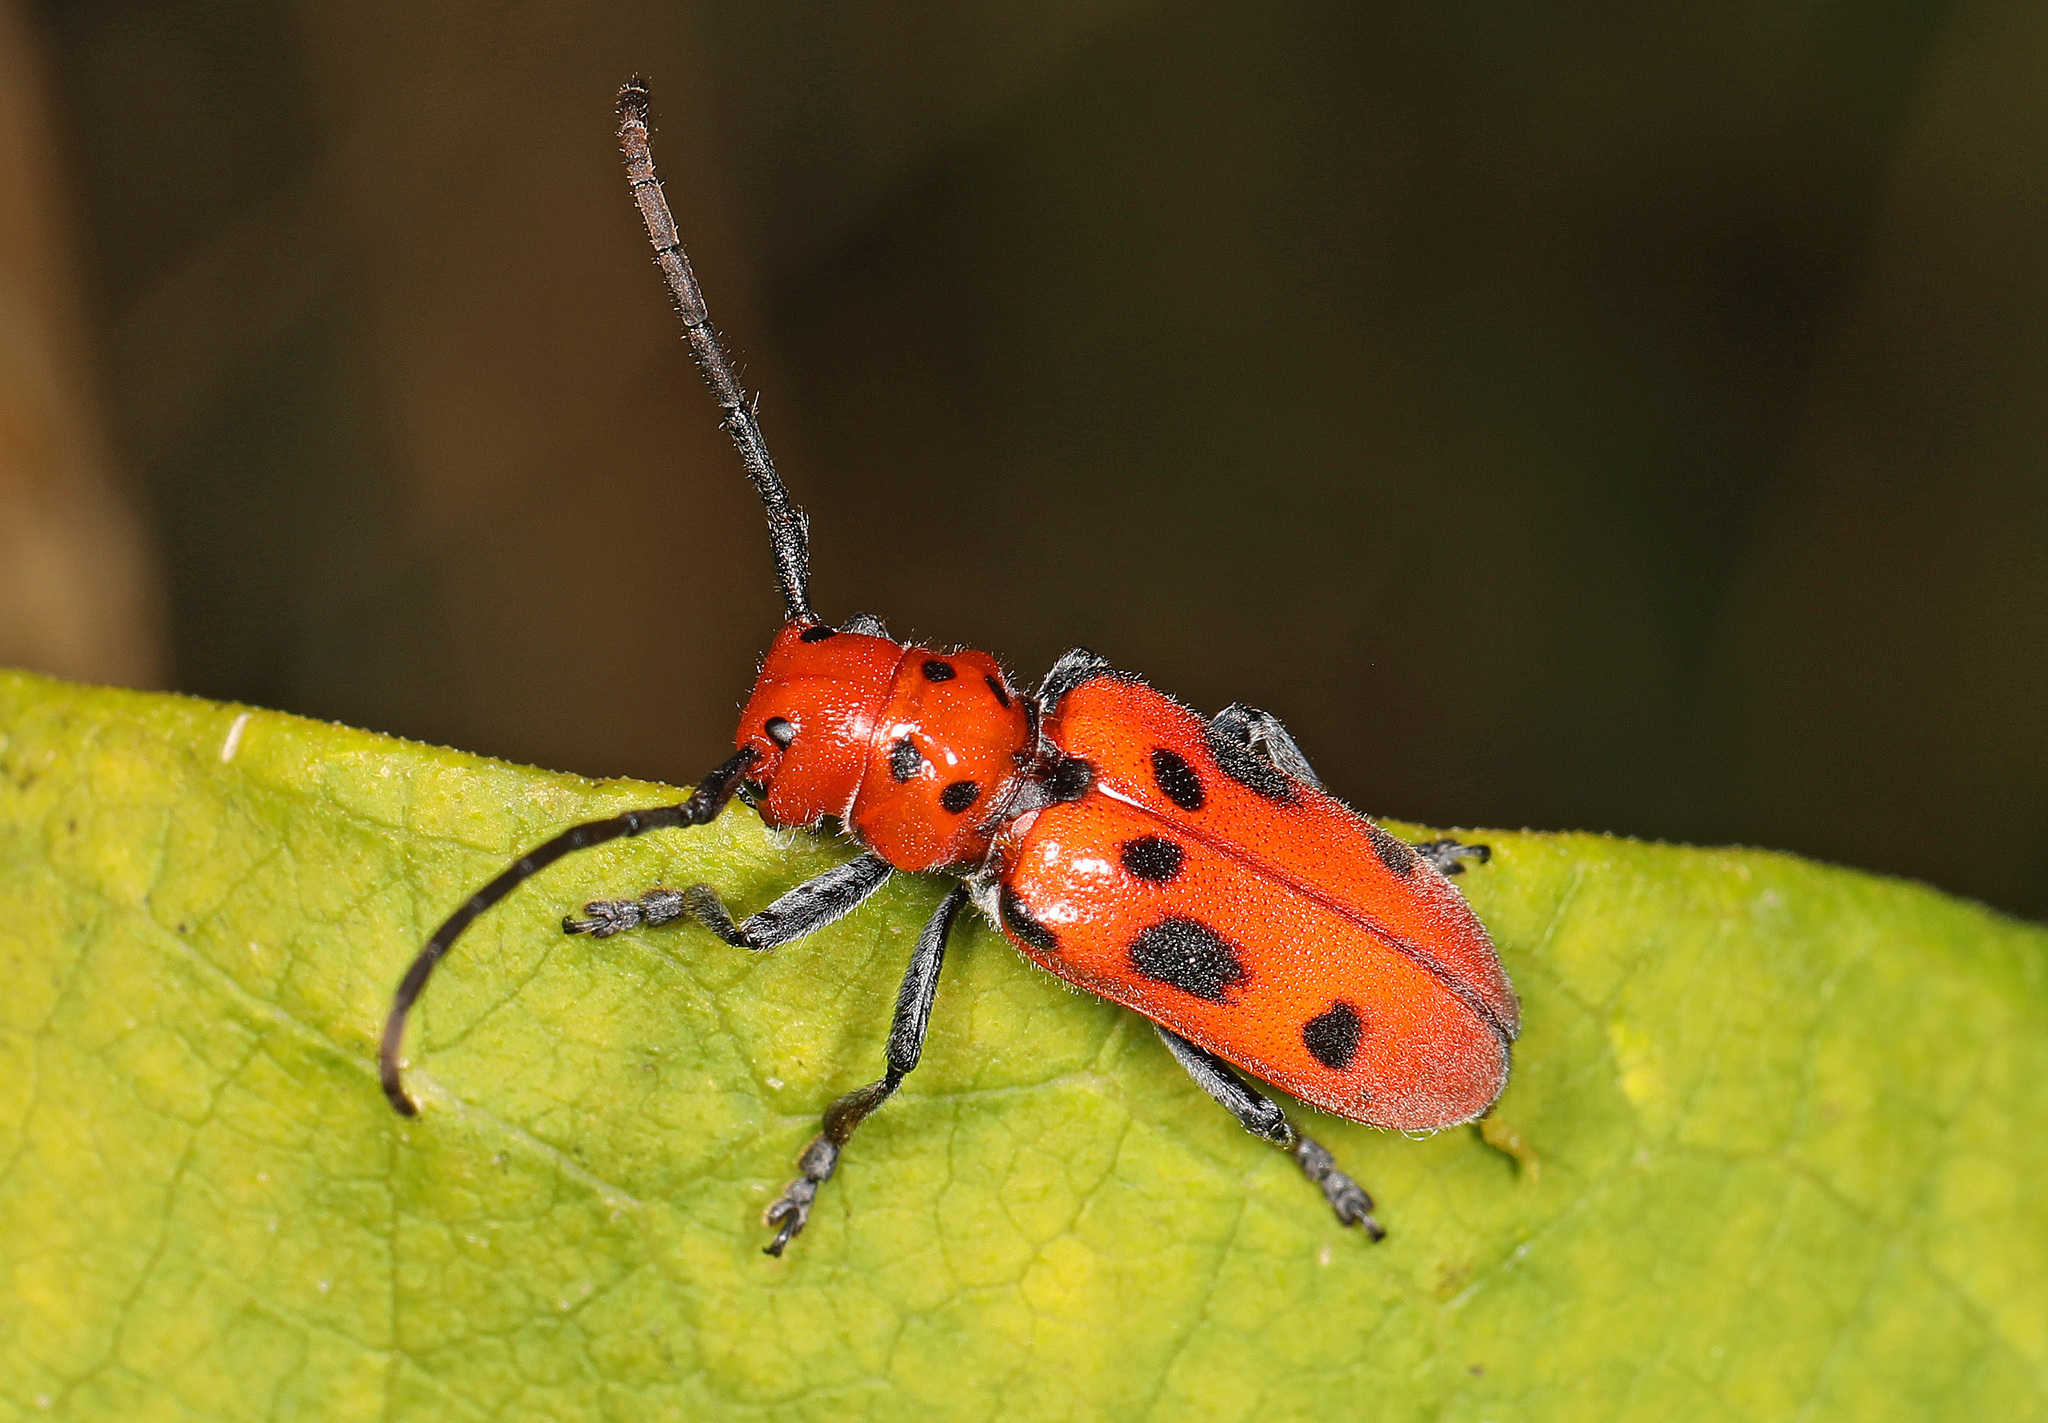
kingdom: Animalia
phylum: Arthropoda
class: Insecta
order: Coleoptera
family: Cerambycidae
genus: Tetraopes
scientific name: Tetraopes tetrophthalmus
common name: Red milkweed beetle
